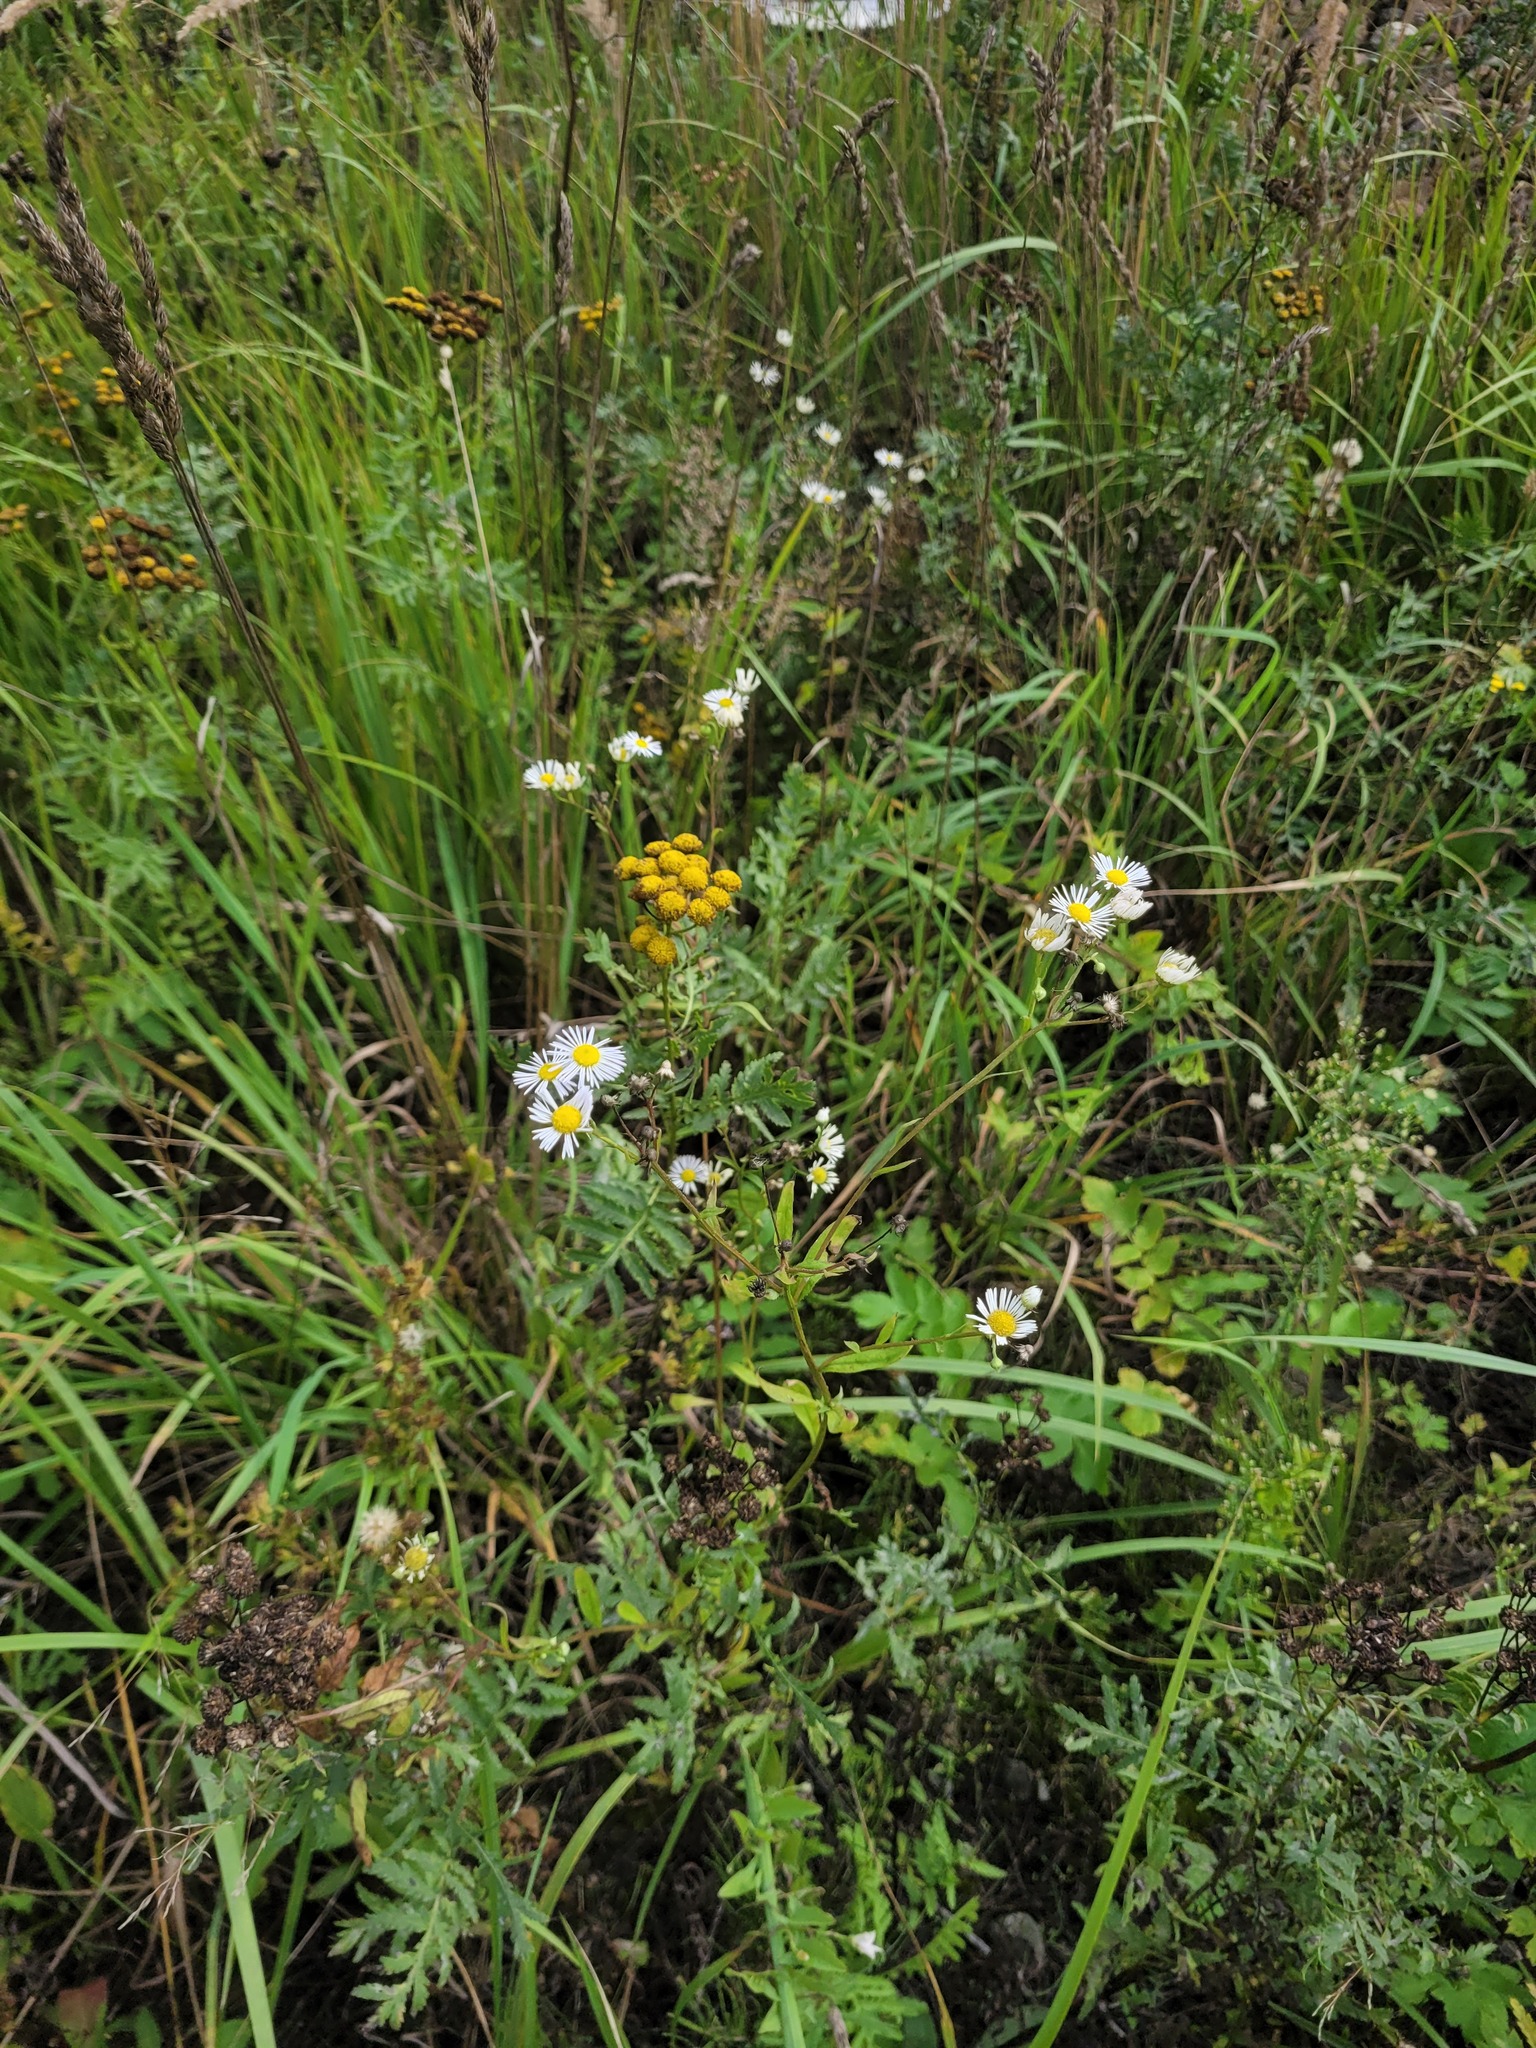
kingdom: Plantae
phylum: Tracheophyta
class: Magnoliopsida
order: Asterales
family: Asteraceae
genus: Erigeron
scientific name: Erigeron annuus
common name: Tall fleabane
